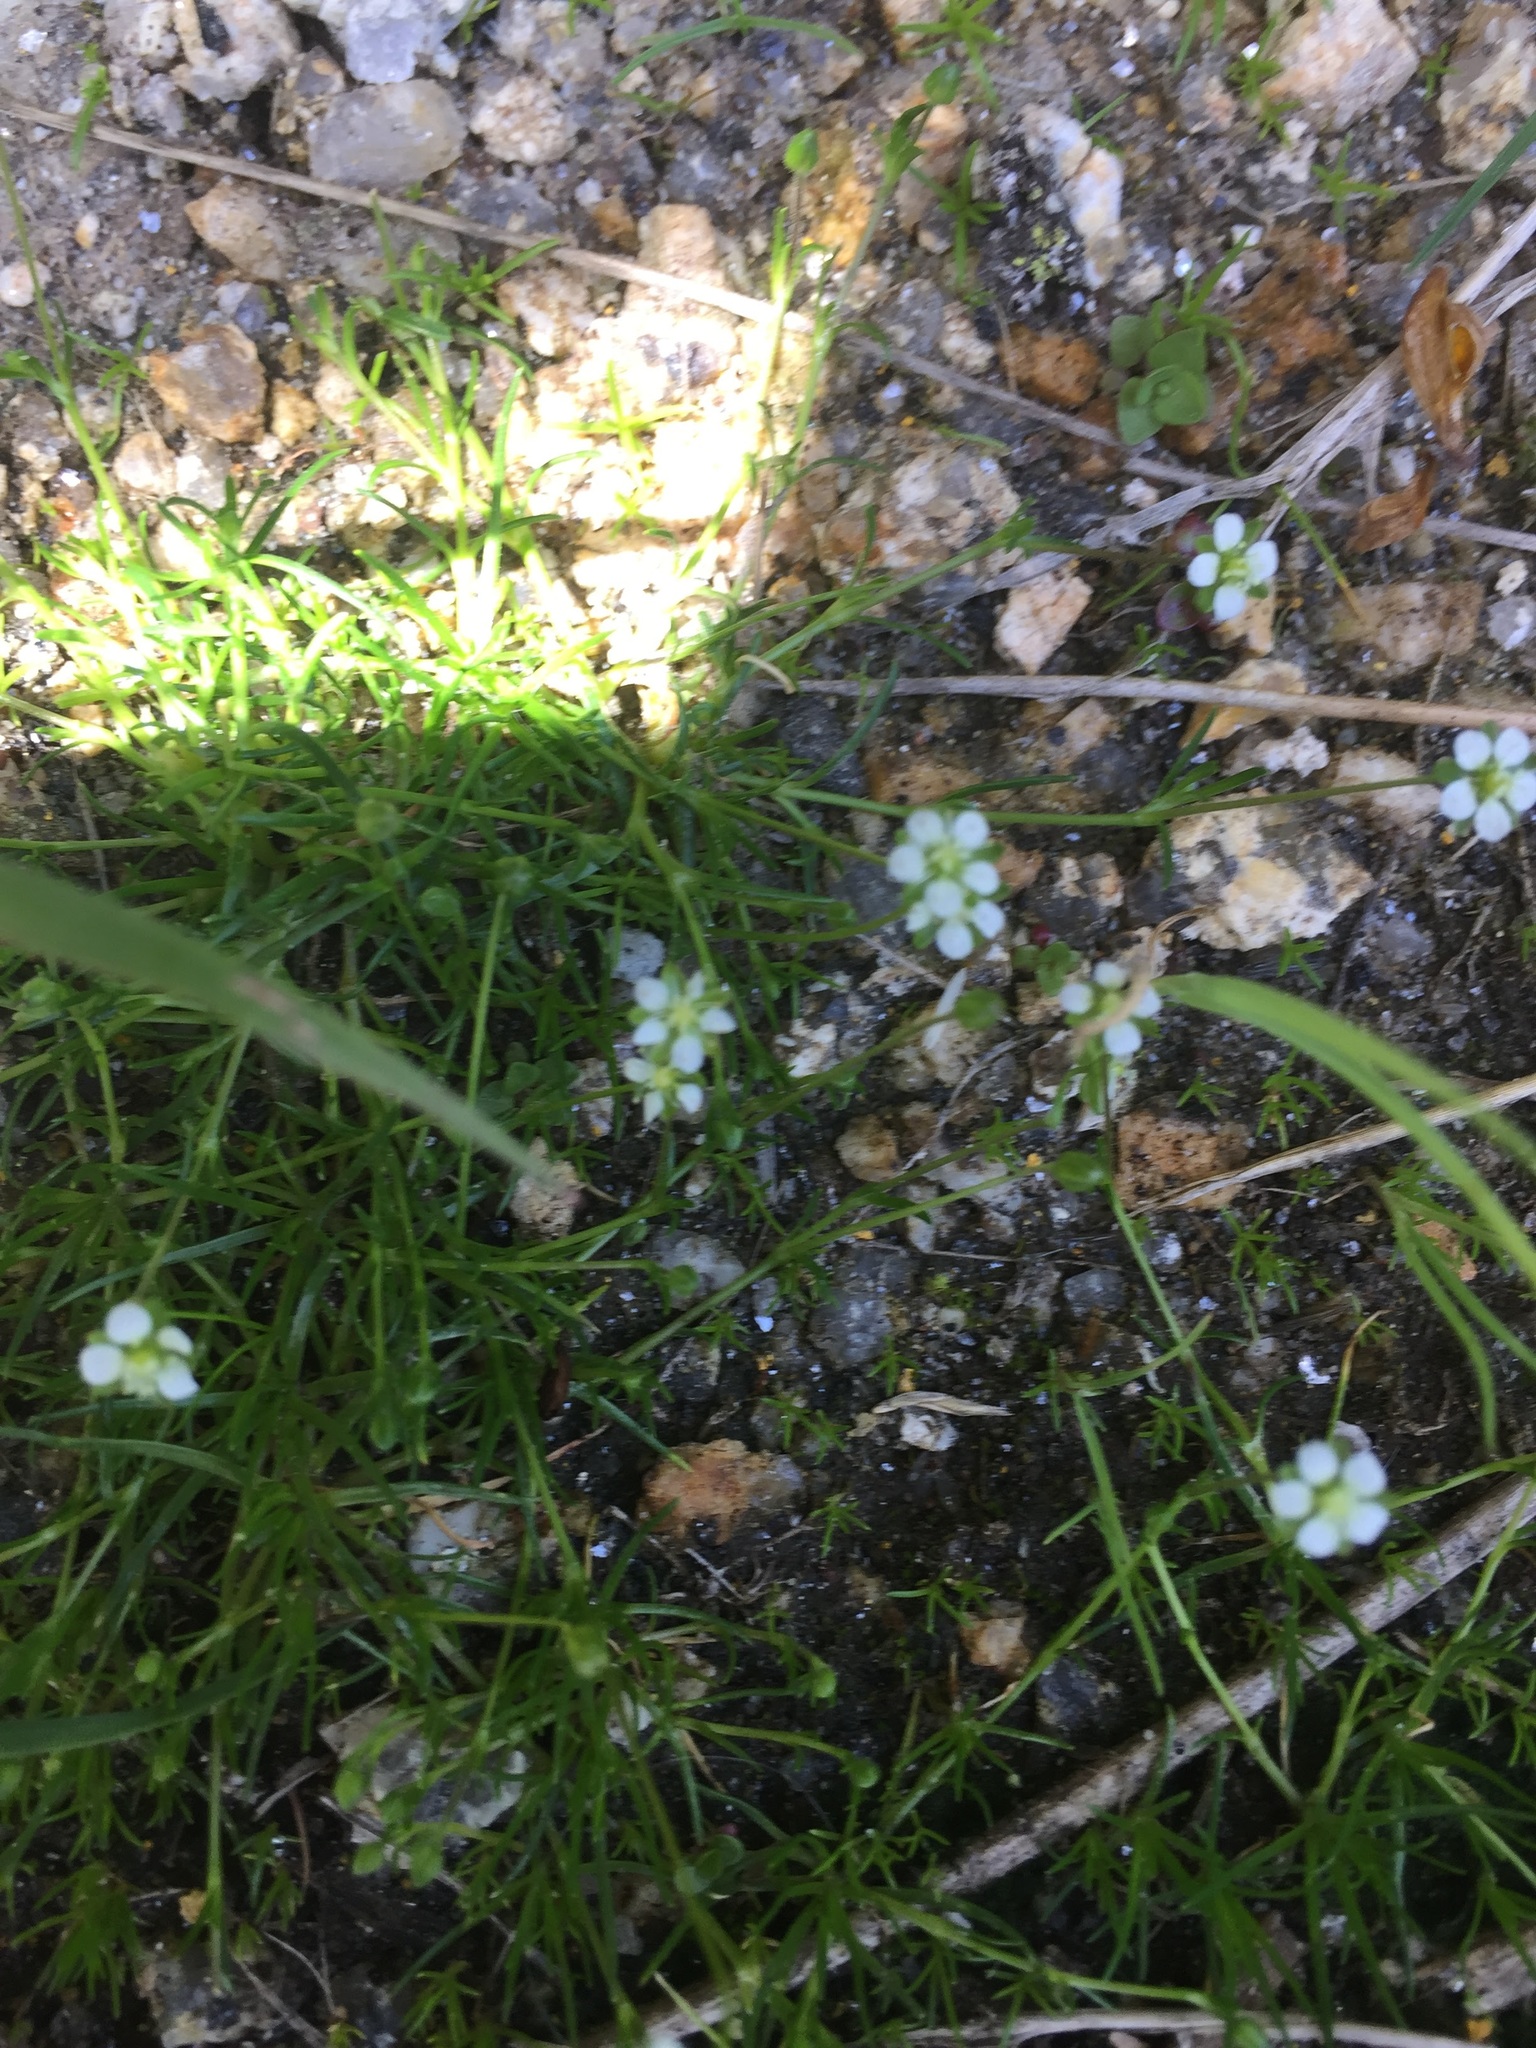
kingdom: Plantae
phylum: Tracheophyta
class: Magnoliopsida
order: Caryophyllales
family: Caryophyllaceae
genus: Sagina
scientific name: Sagina saginoides
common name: Alpine pearlwort
